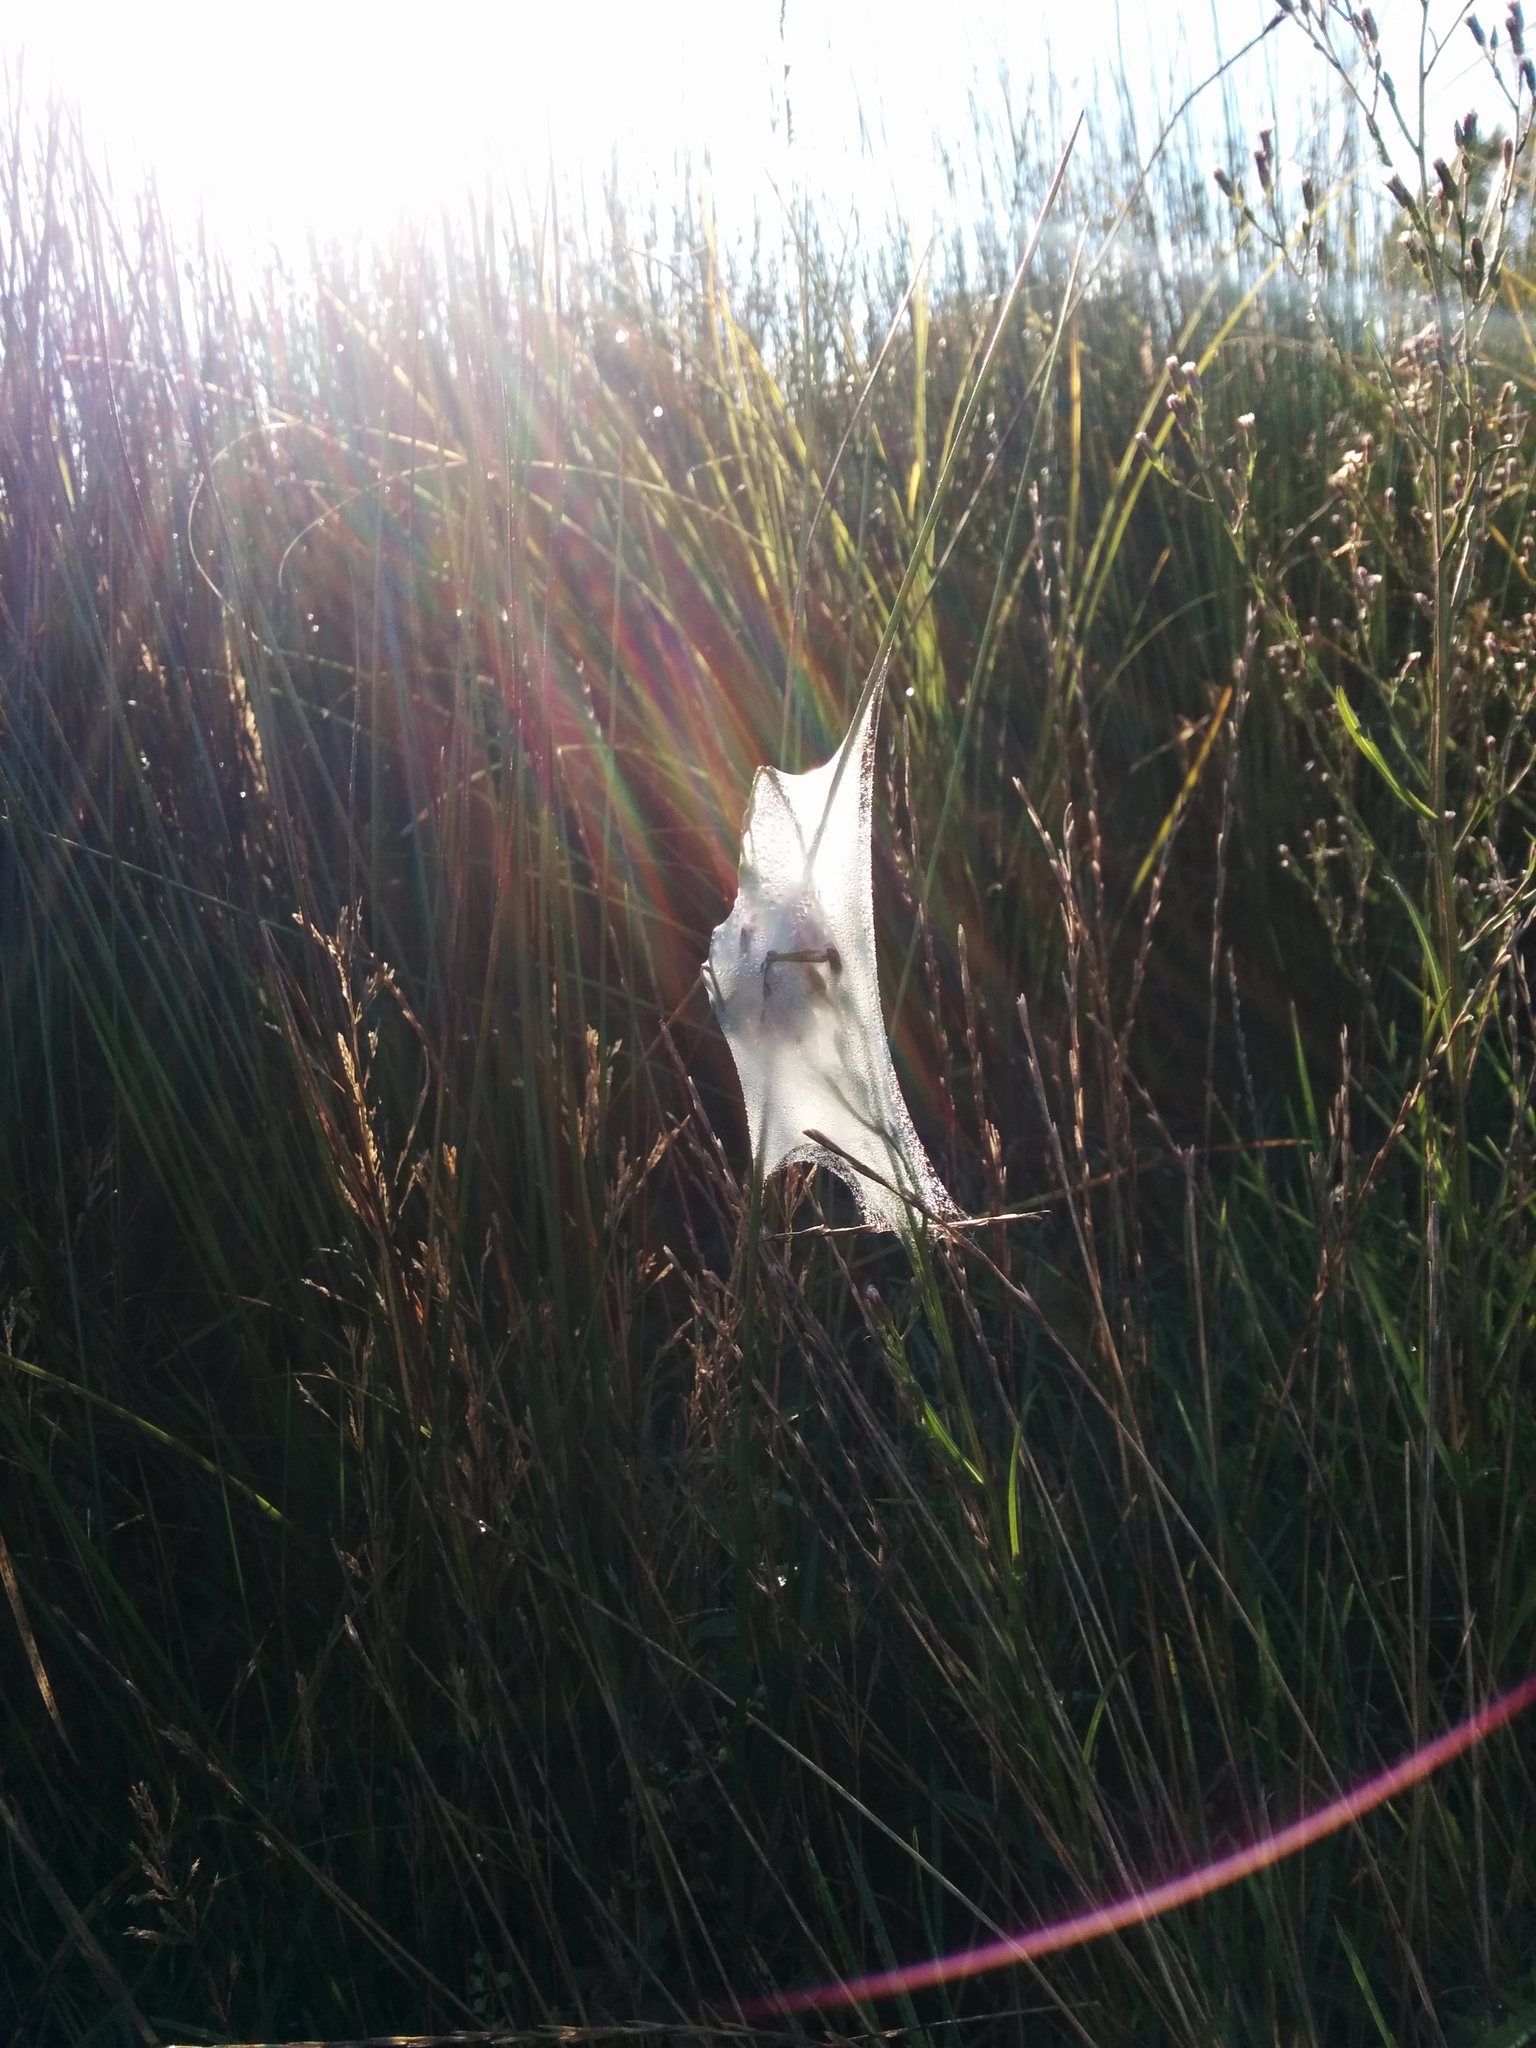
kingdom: Animalia
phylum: Arthropoda
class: Arachnida
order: Araneae
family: Pisauridae
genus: Dolomedes
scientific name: Dolomedes minor
